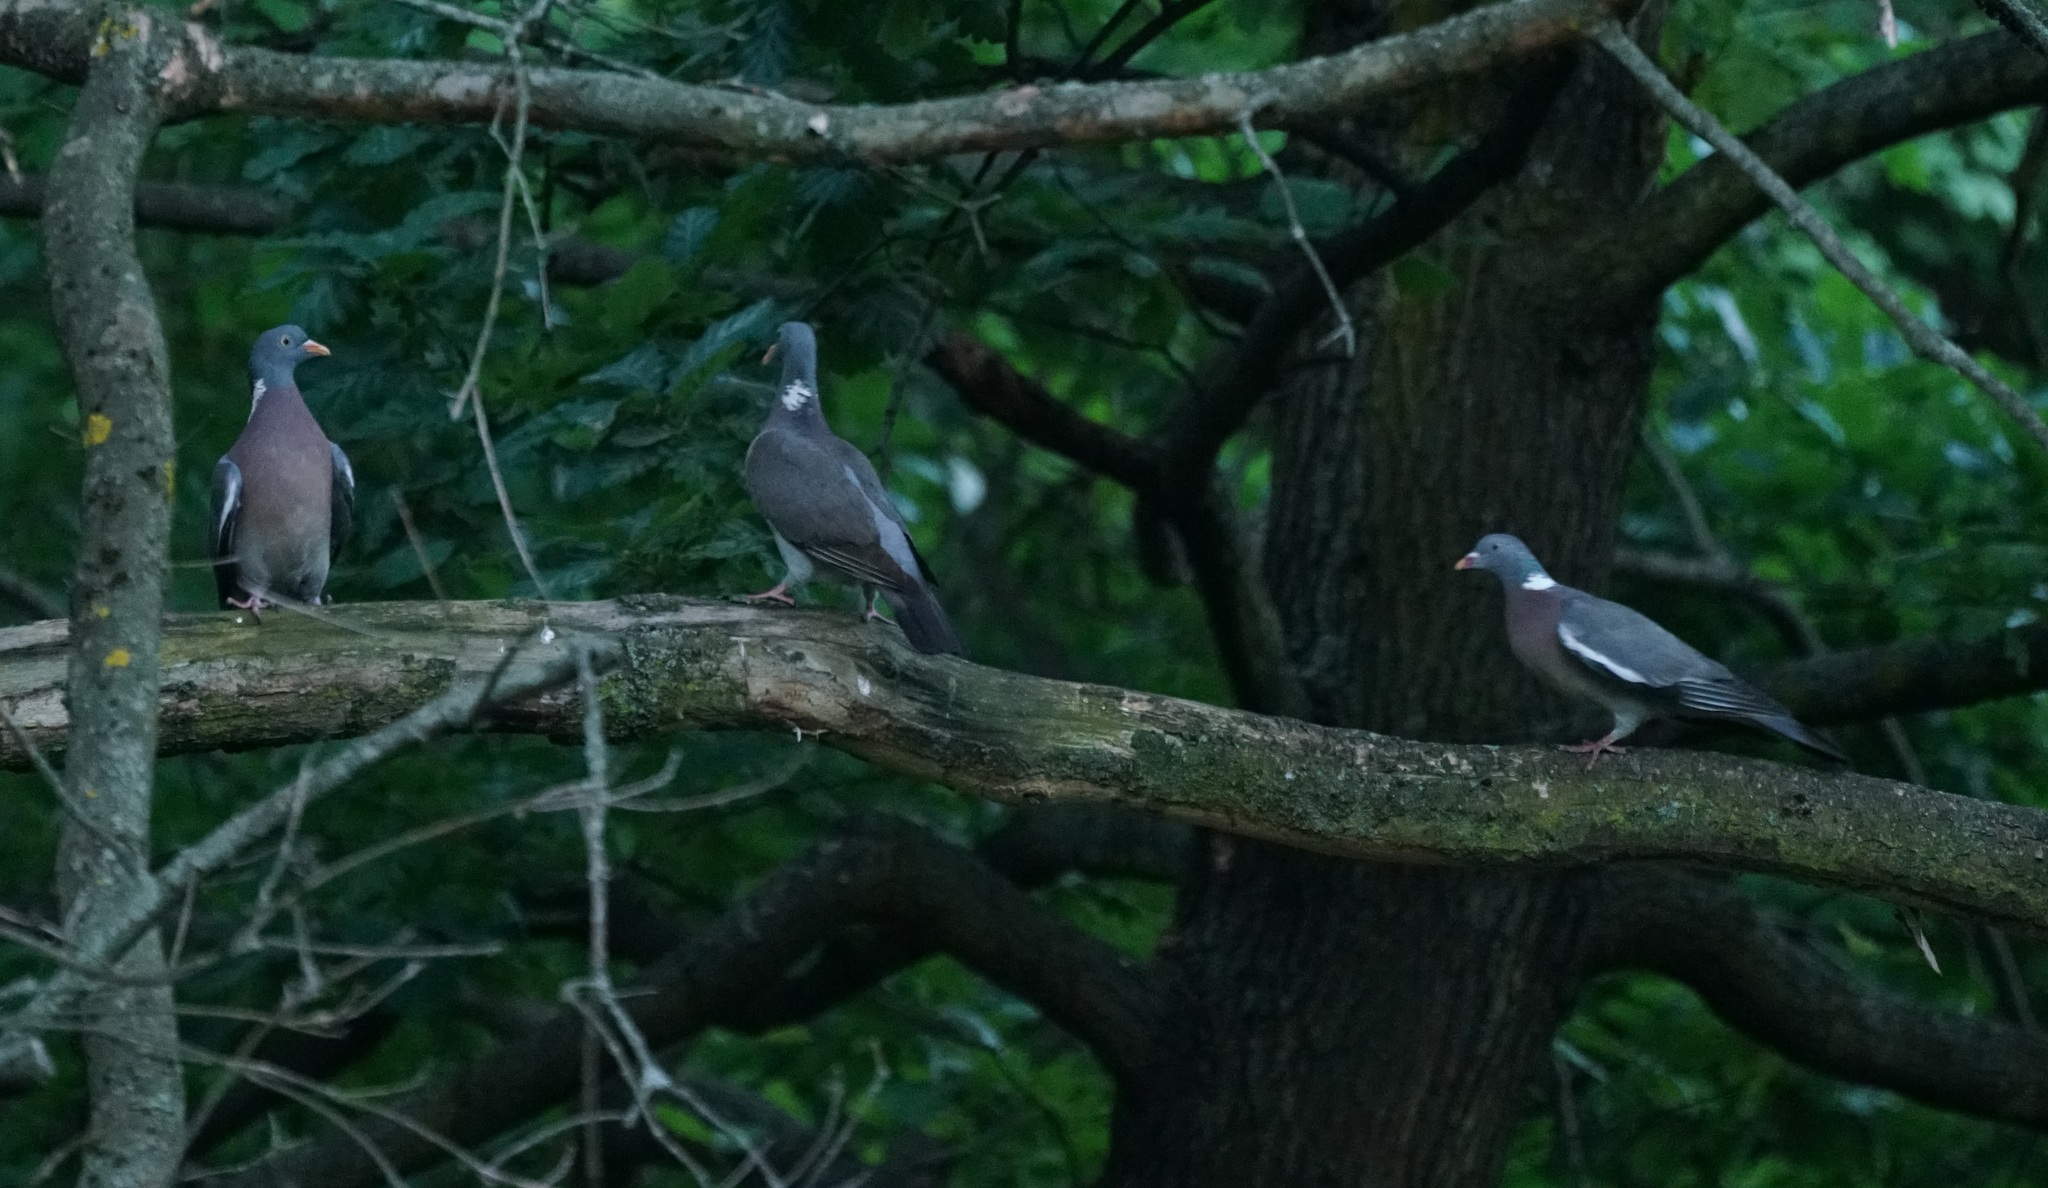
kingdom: Animalia
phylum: Chordata
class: Aves
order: Columbiformes
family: Columbidae
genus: Columba
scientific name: Columba palumbus
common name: Common wood pigeon
